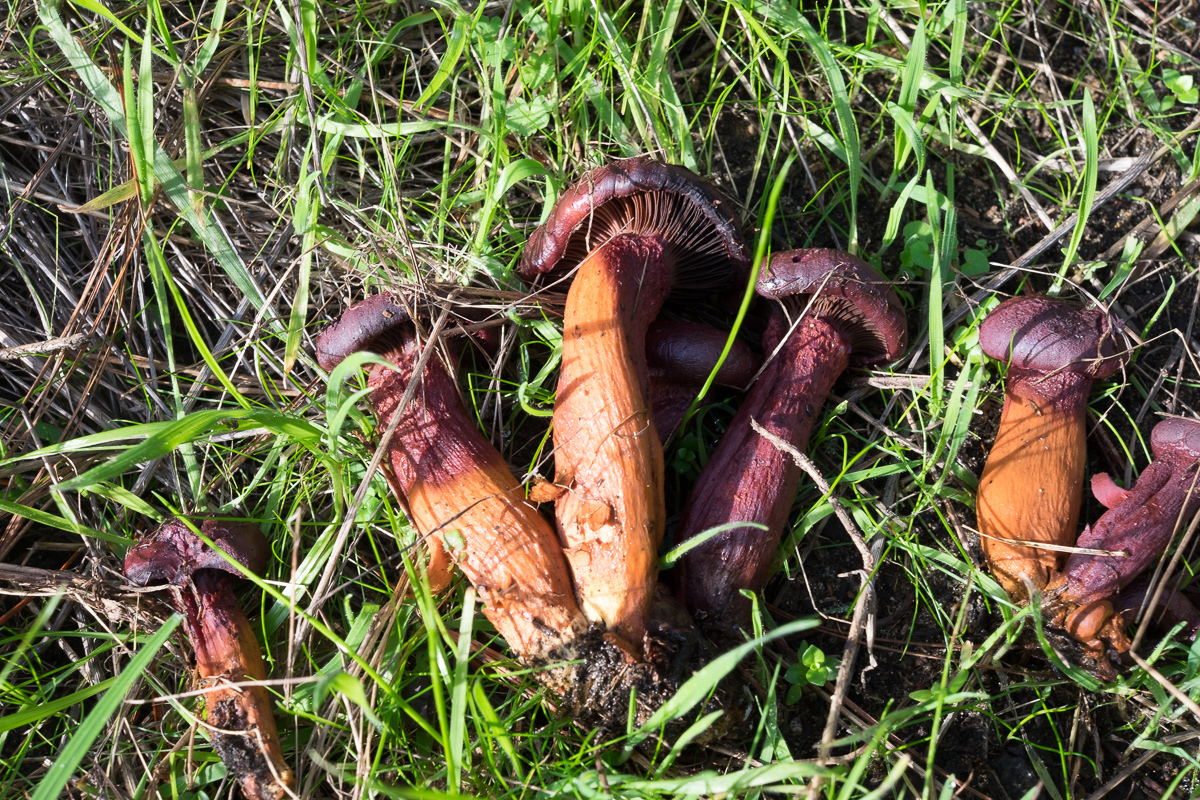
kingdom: Fungi
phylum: Basidiomycota
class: Agaricomycetes
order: Boletales
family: Gomphidiaceae
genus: Chroogomphus
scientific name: Chroogomphus vinicolor
